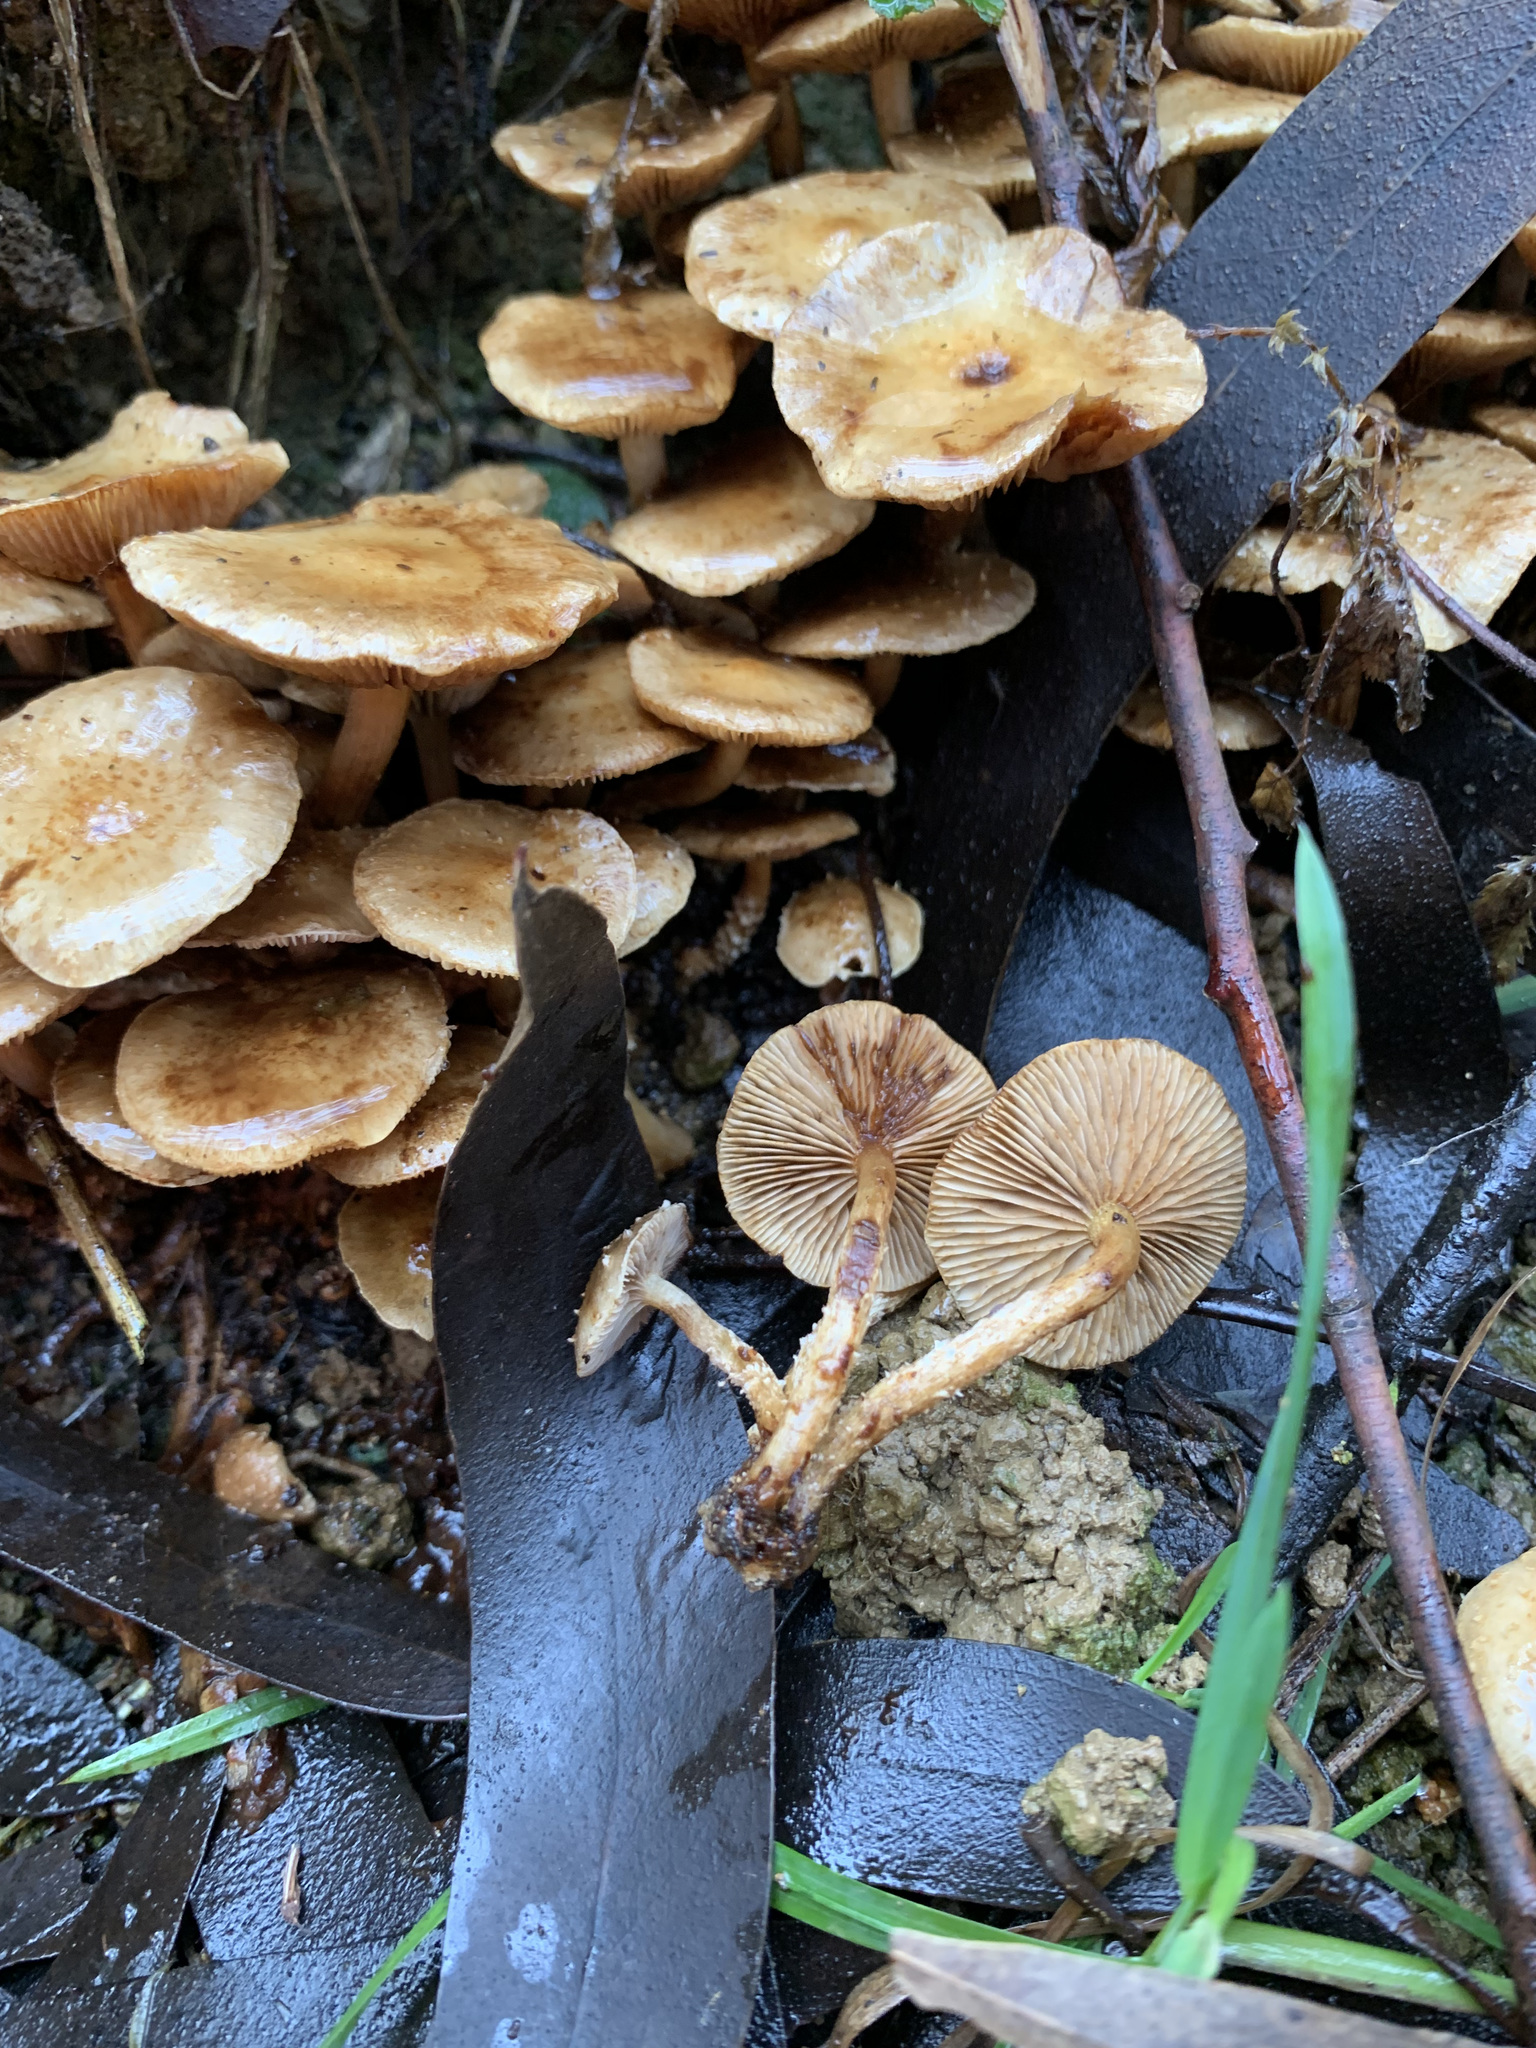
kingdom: Fungi
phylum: Basidiomycota
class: Agaricomycetes
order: Agaricales
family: Strophariaceae
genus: Pholiota
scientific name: Pholiota subflammans
